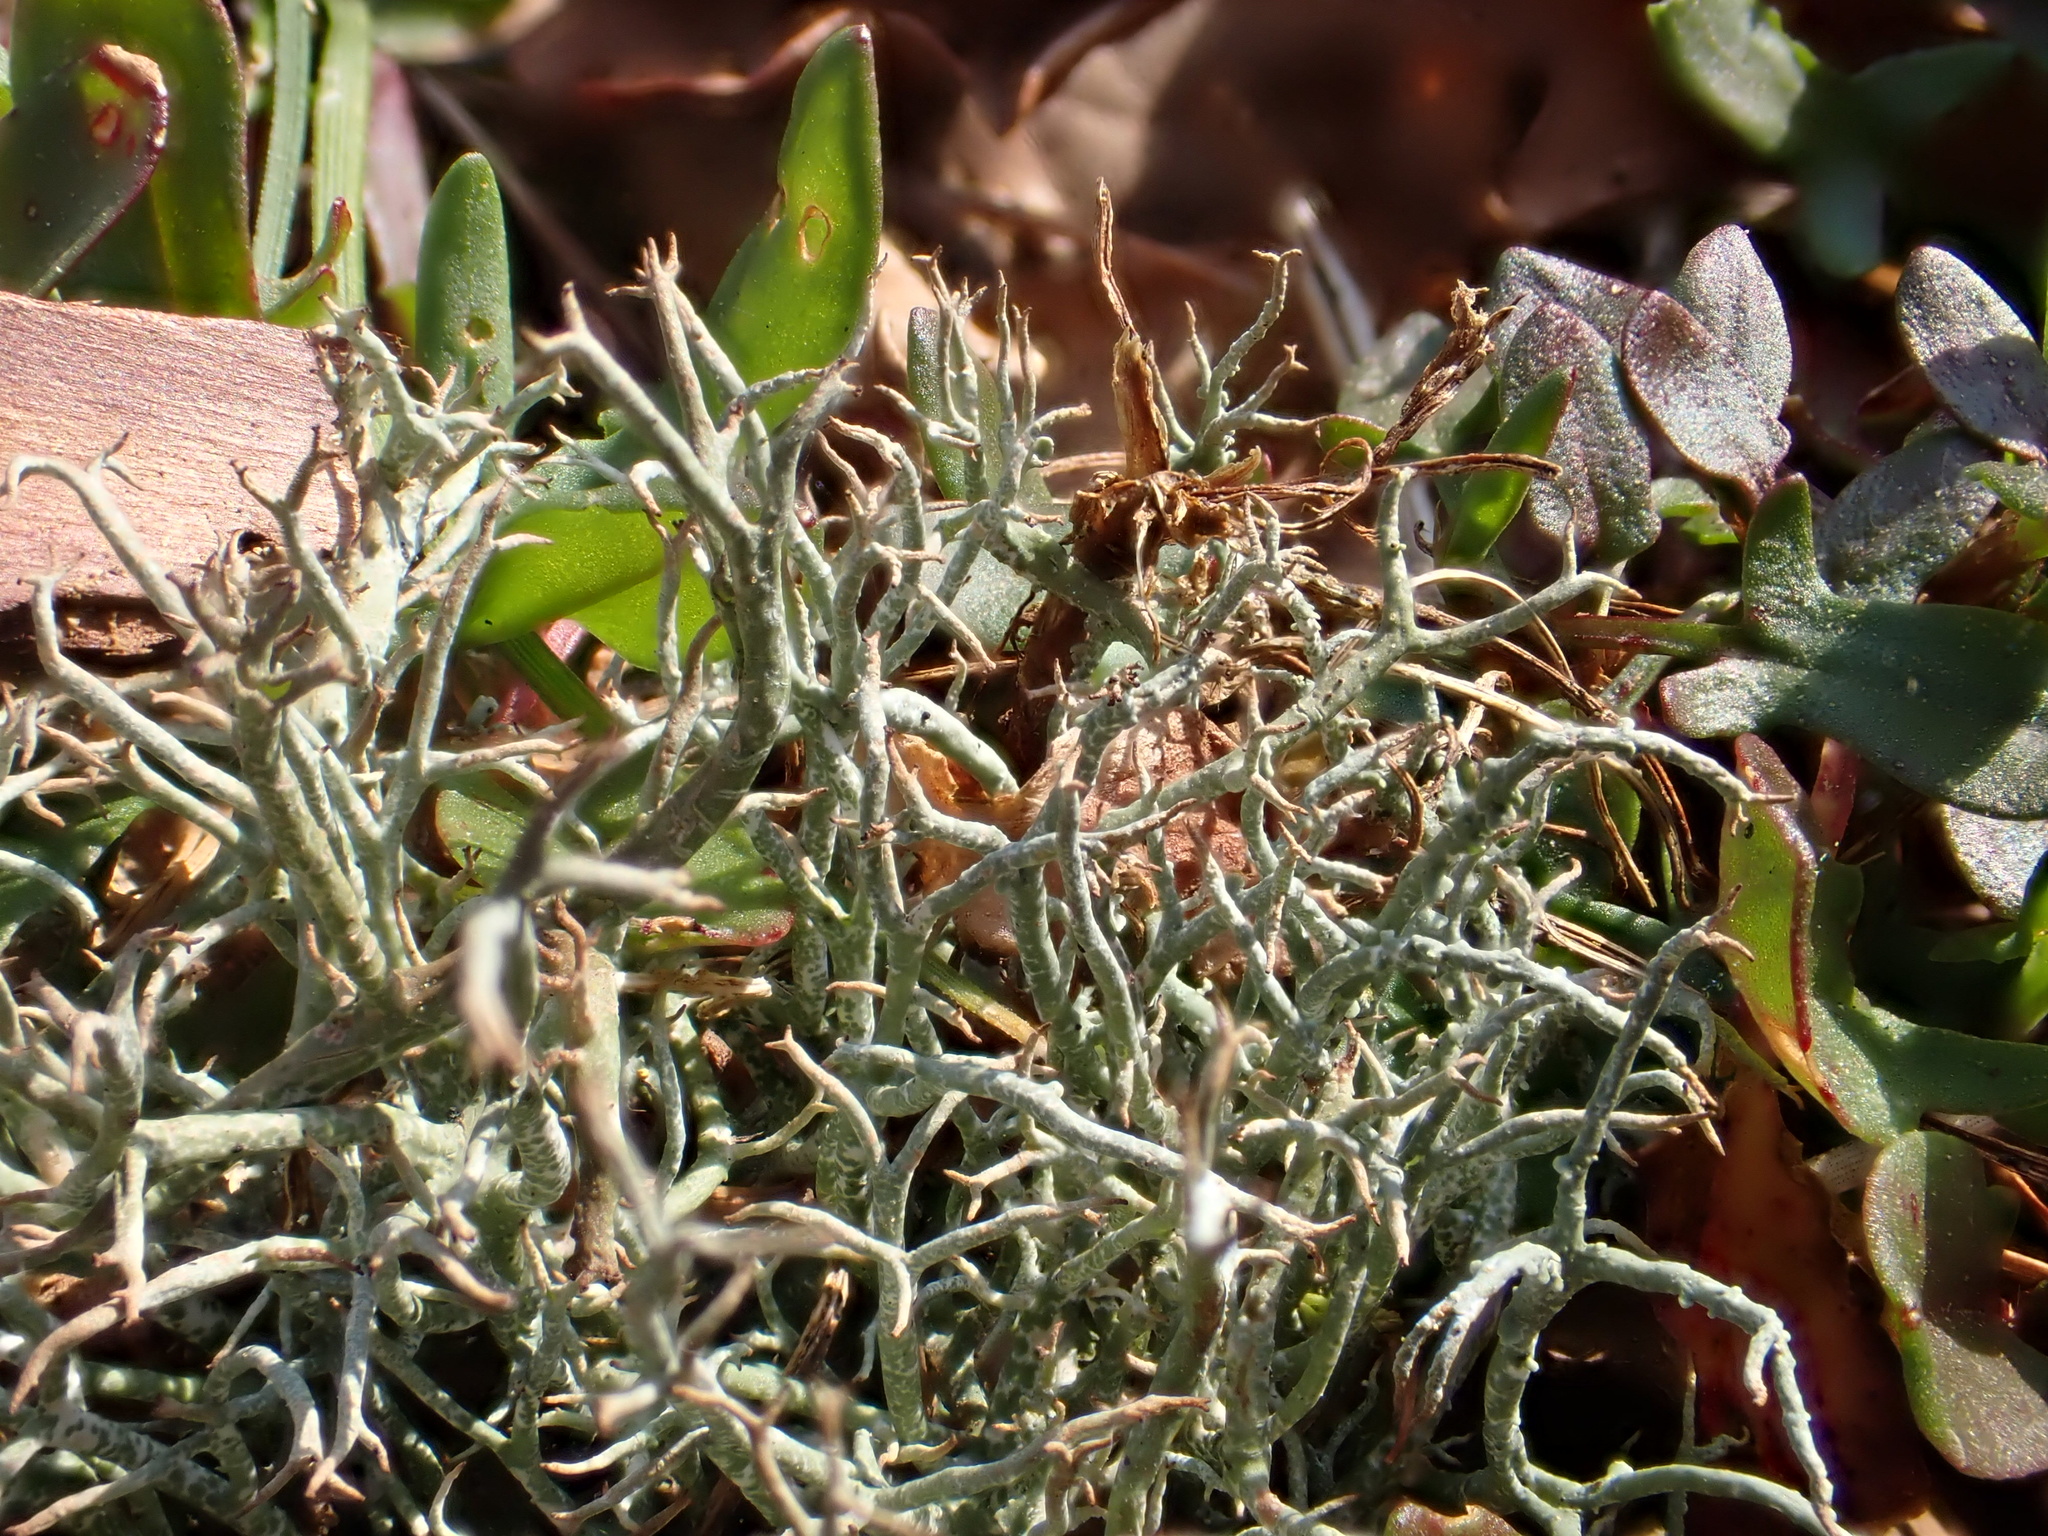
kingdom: Fungi
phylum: Ascomycota
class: Lecanoromycetes
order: Lecanorales
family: Cladoniaceae
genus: Cladonia
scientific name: Cladonia furcata
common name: Many-forked cladonia
